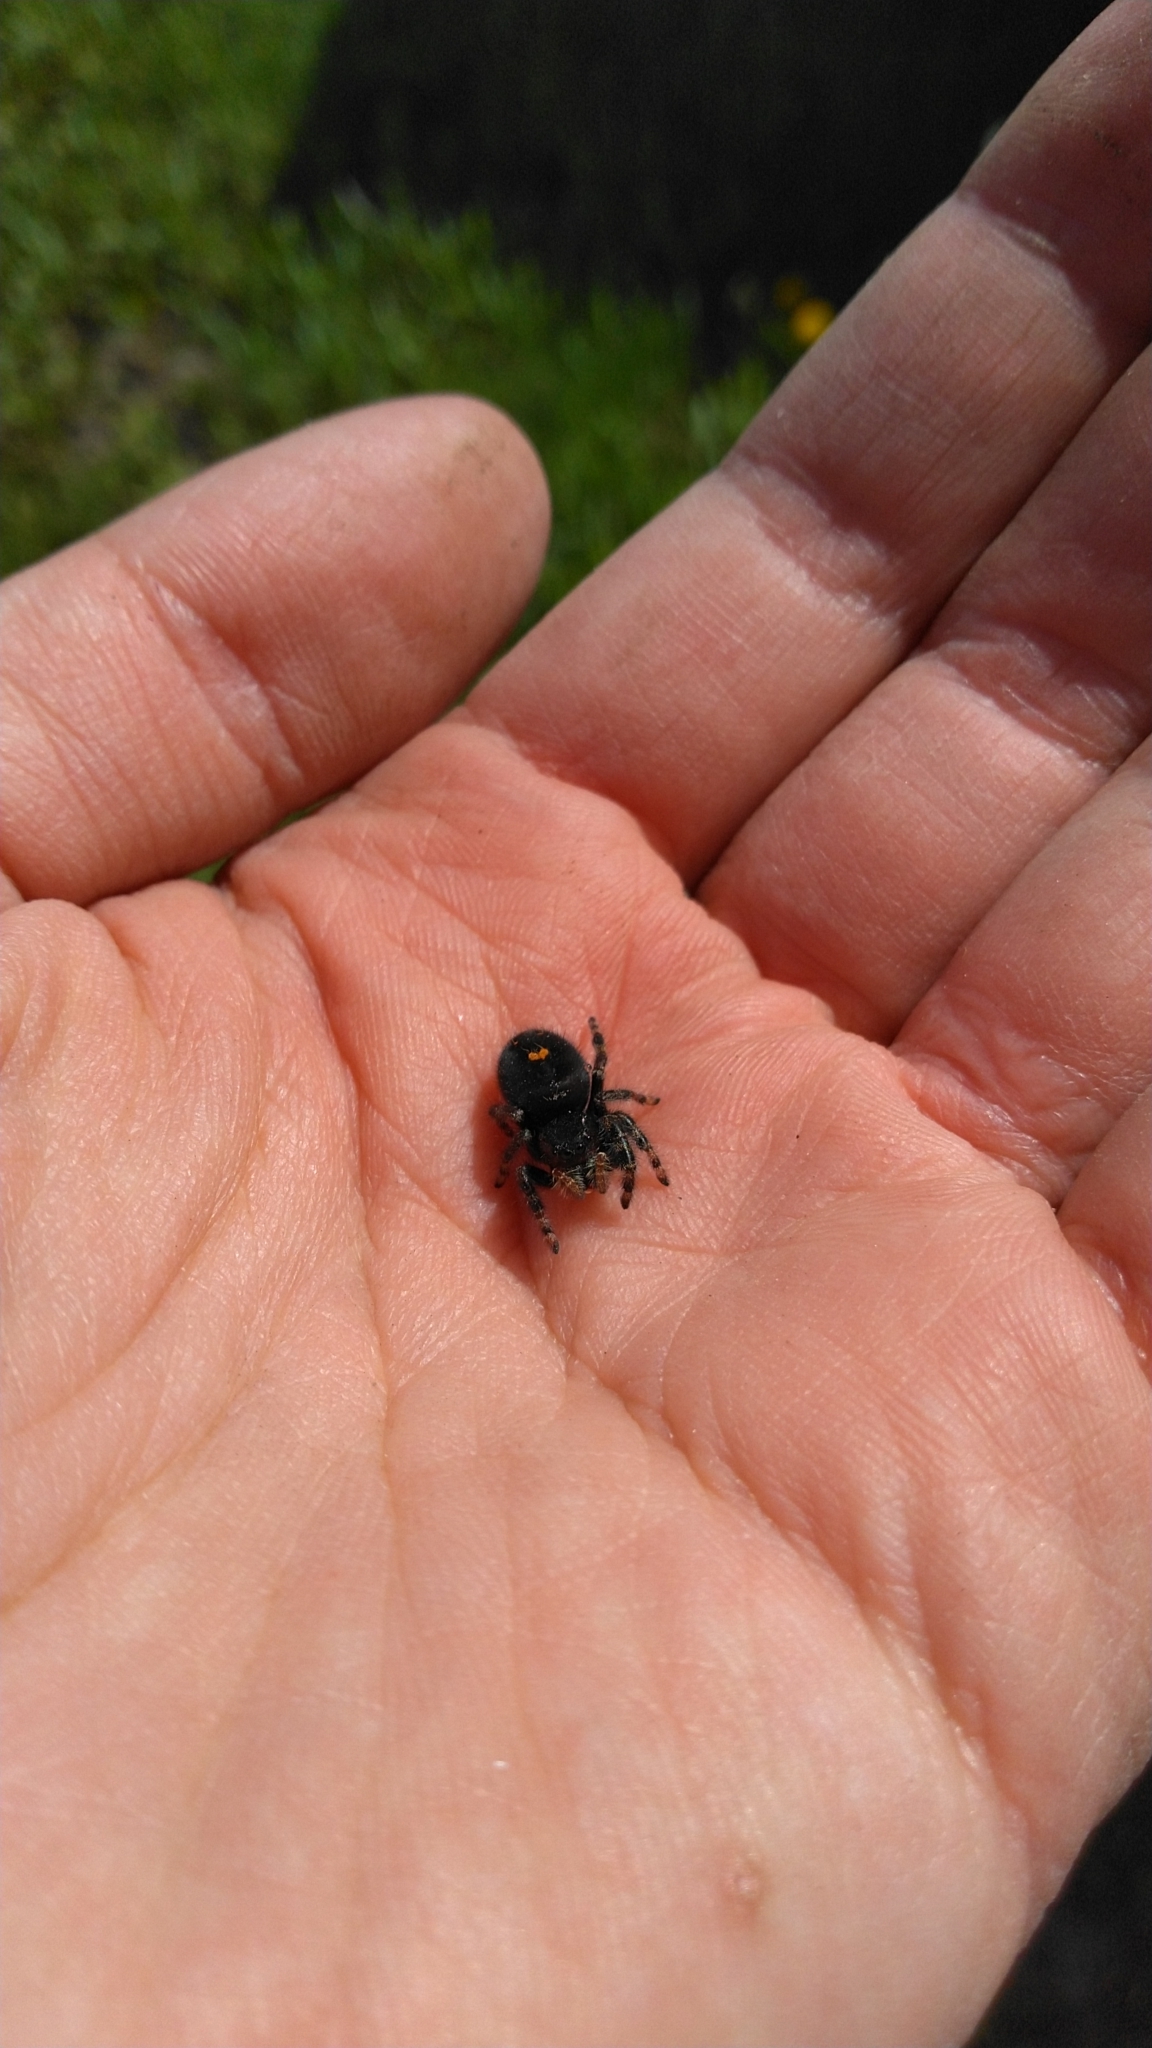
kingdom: Animalia
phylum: Arthropoda
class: Arachnida
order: Araneae
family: Salticidae
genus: Phidippus
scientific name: Phidippus audax
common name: Bold jumper
